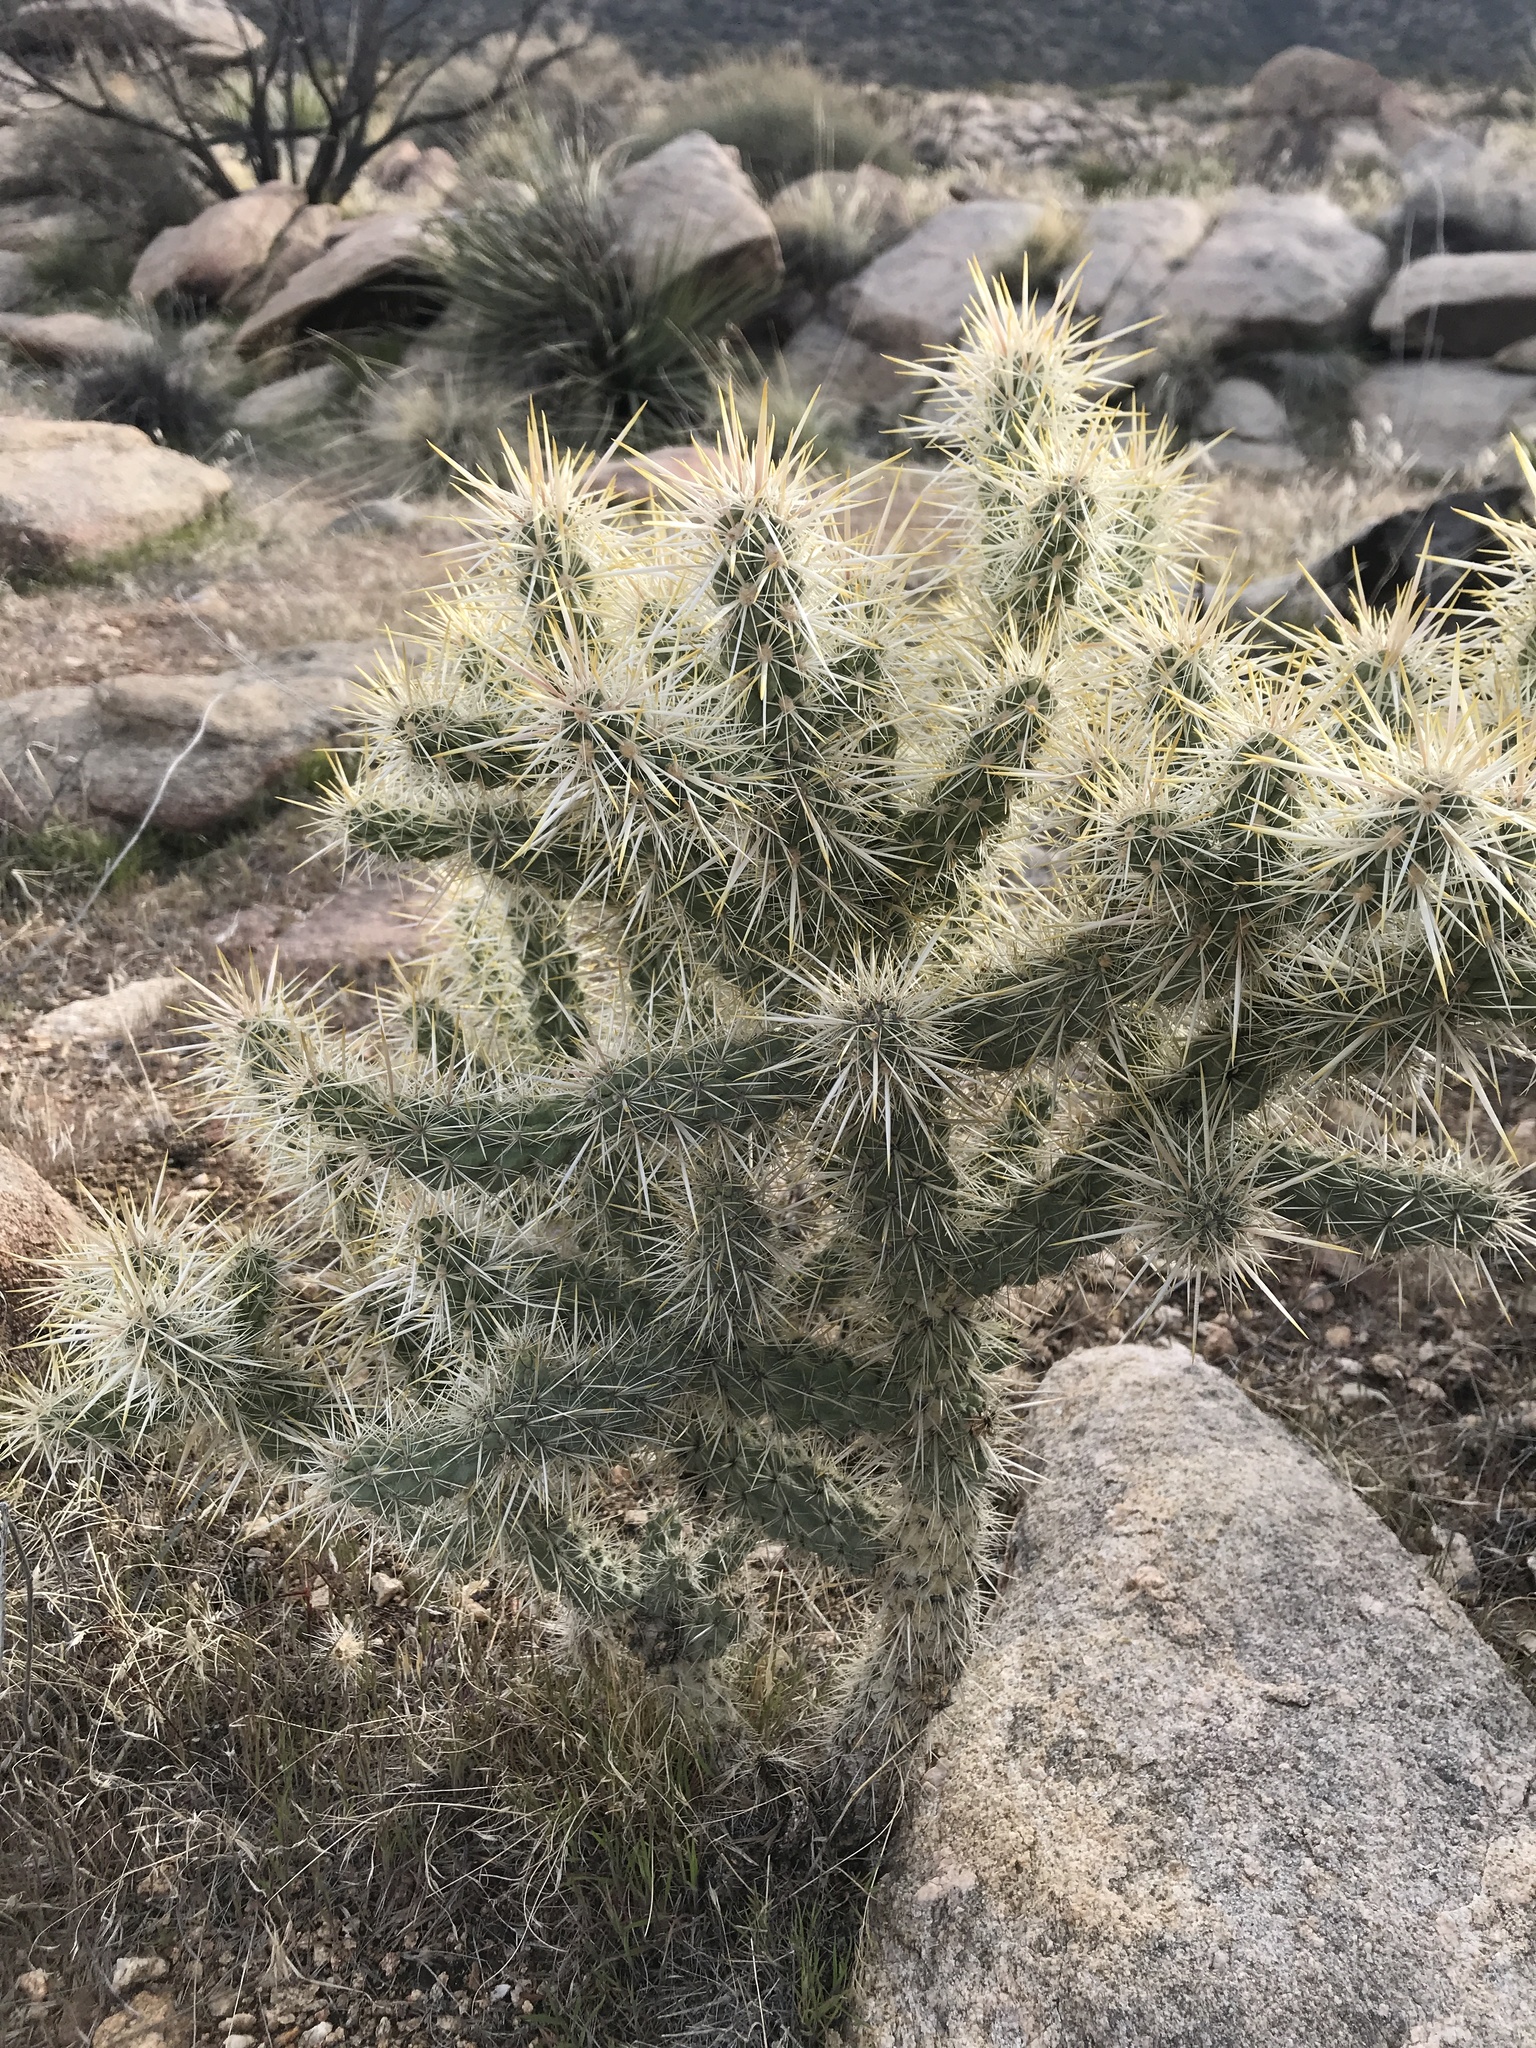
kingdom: Plantae
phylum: Tracheophyta
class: Magnoliopsida
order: Caryophyllales
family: Cactaceae
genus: Cylindropuntia
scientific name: Cylindropuntia echinocarpa
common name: Ground cholla
